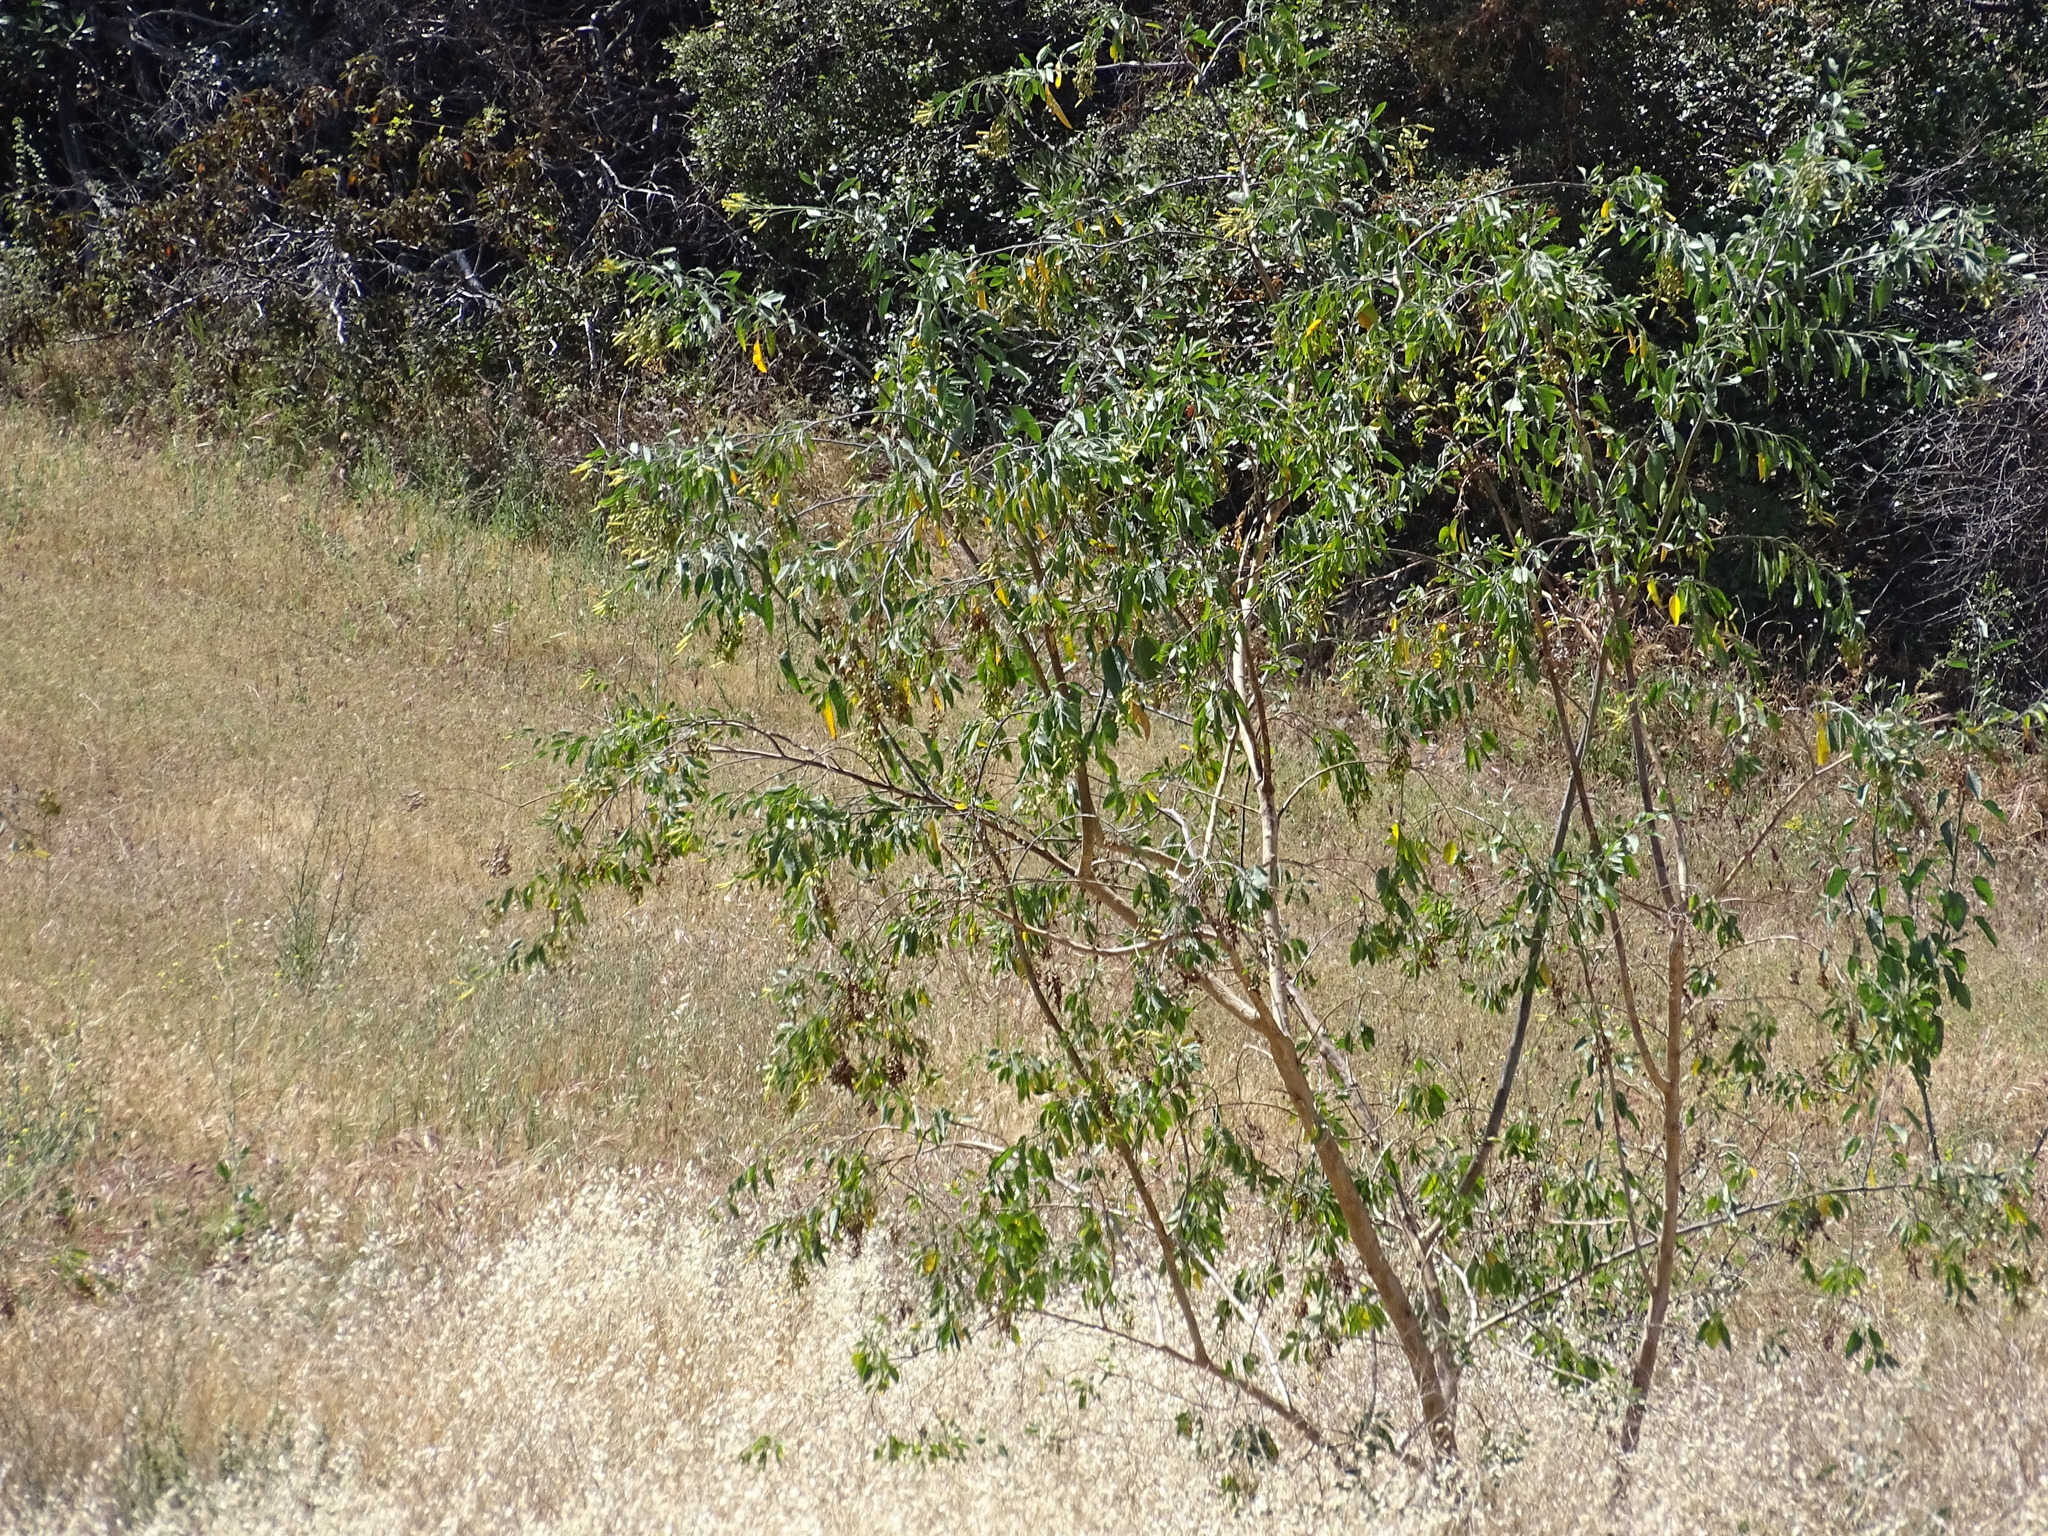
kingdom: Plantae
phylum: Tracheophyta
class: Magnoliopsida
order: Solanales
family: Solanaceae
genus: Nicotiana
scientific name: Nicotiana glauca
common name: Tree tobacco
